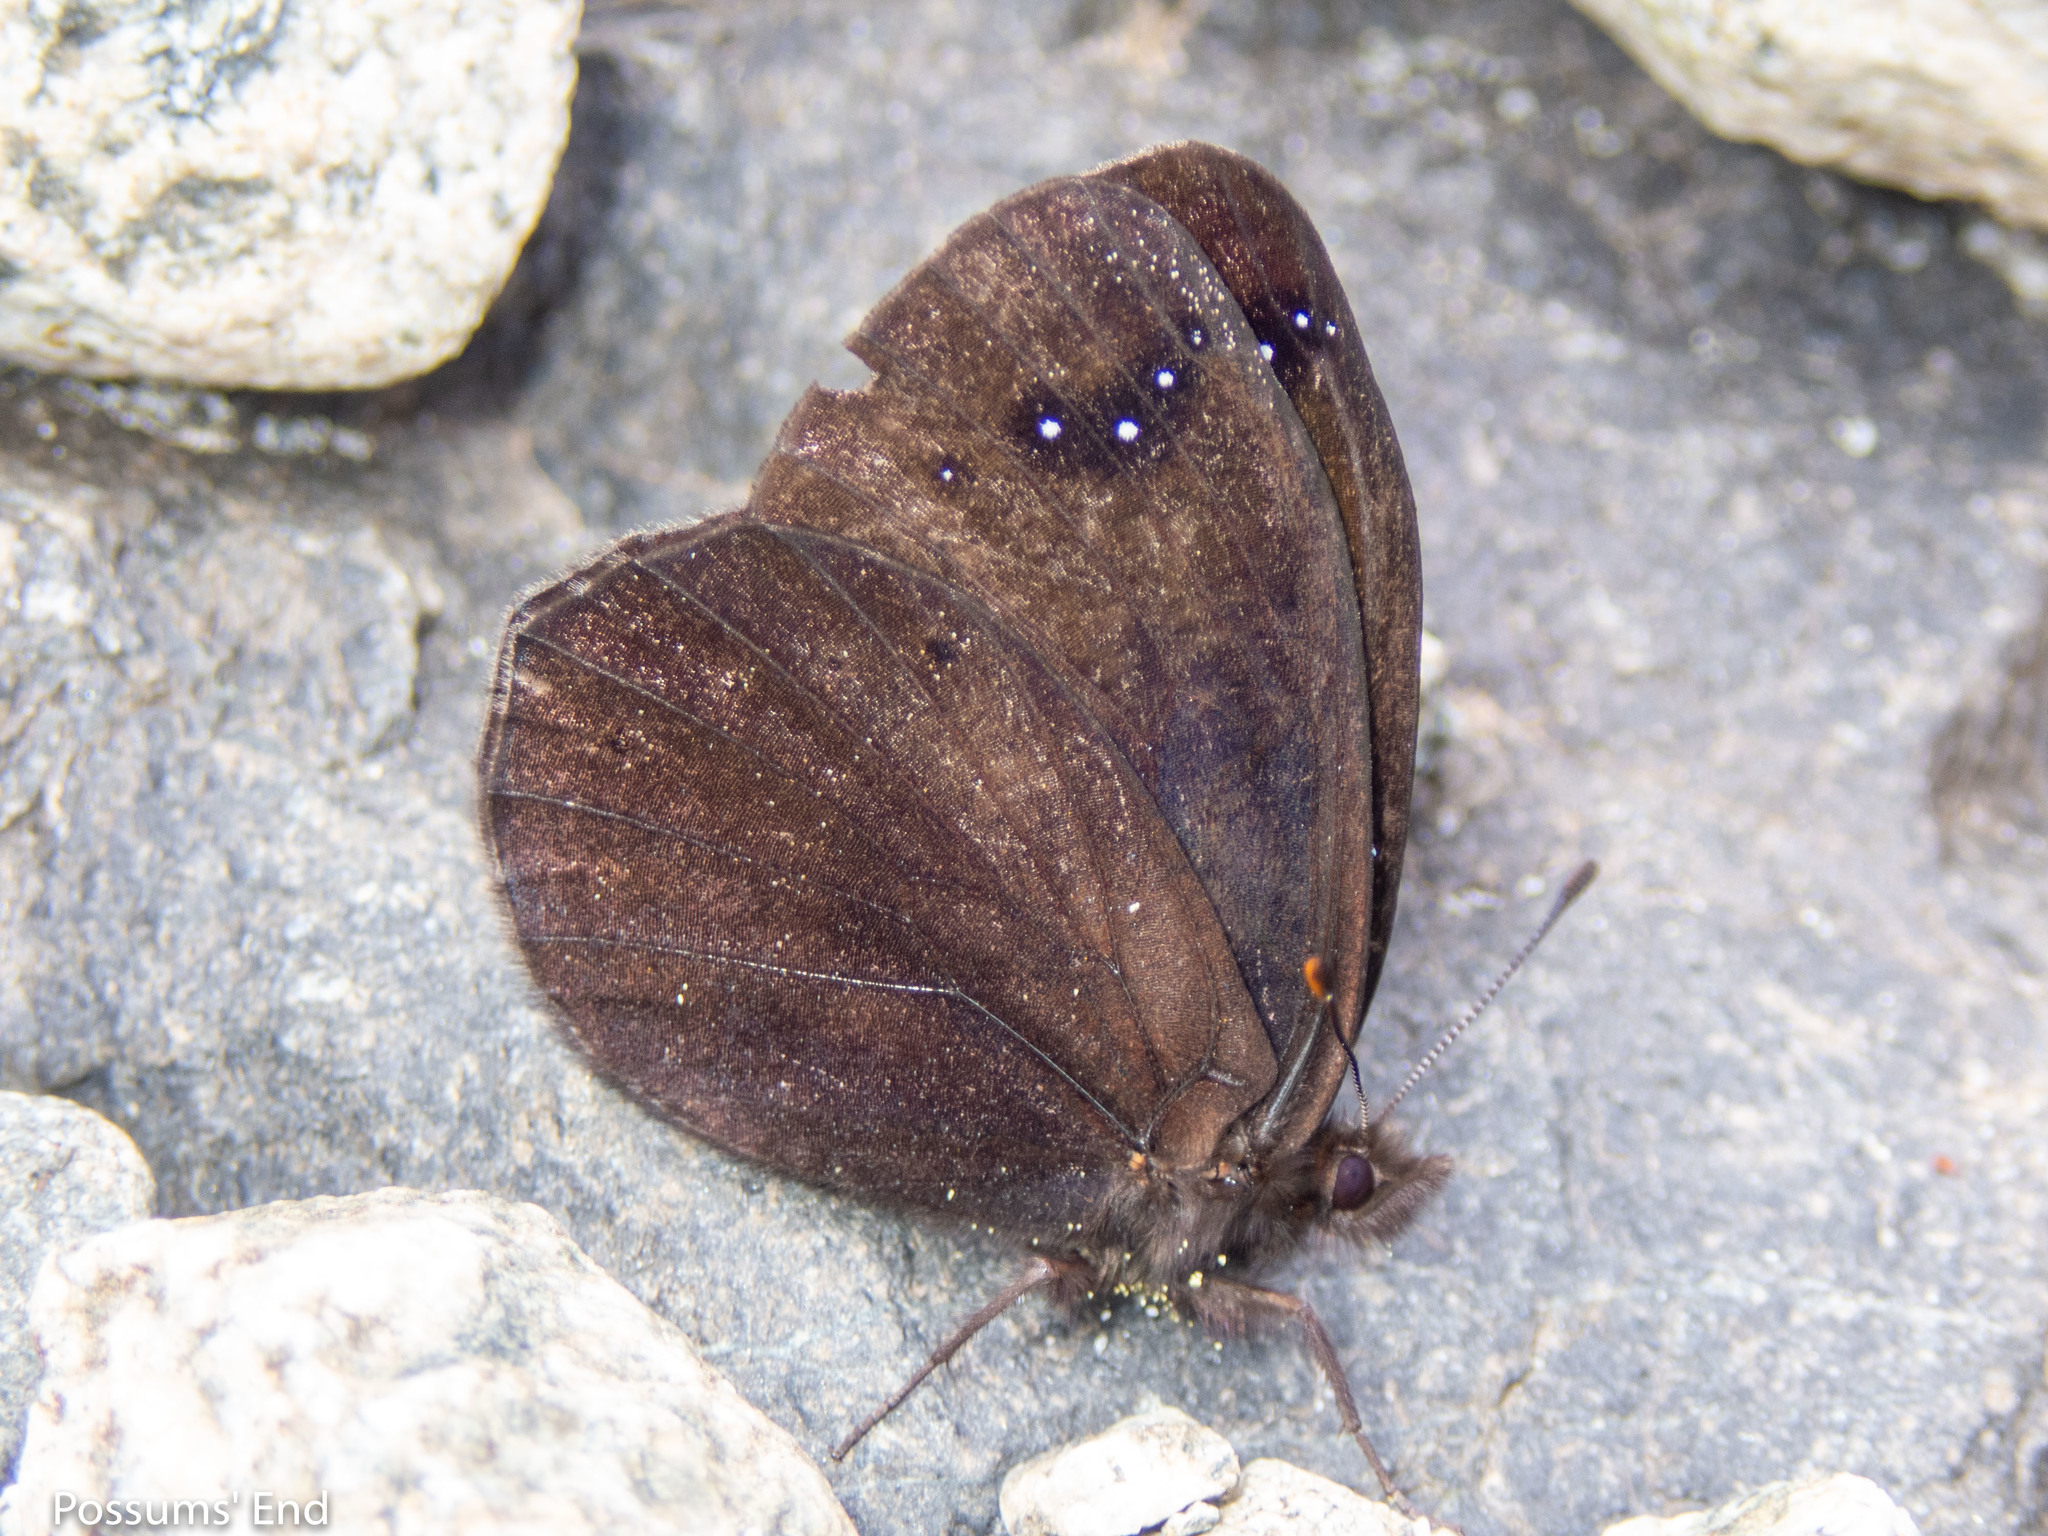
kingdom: Animalia
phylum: Arthropoda
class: Insecta
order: Lepidoptera
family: Nymphalidae
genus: Erebia
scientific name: Erebia Percnodaimon merula
